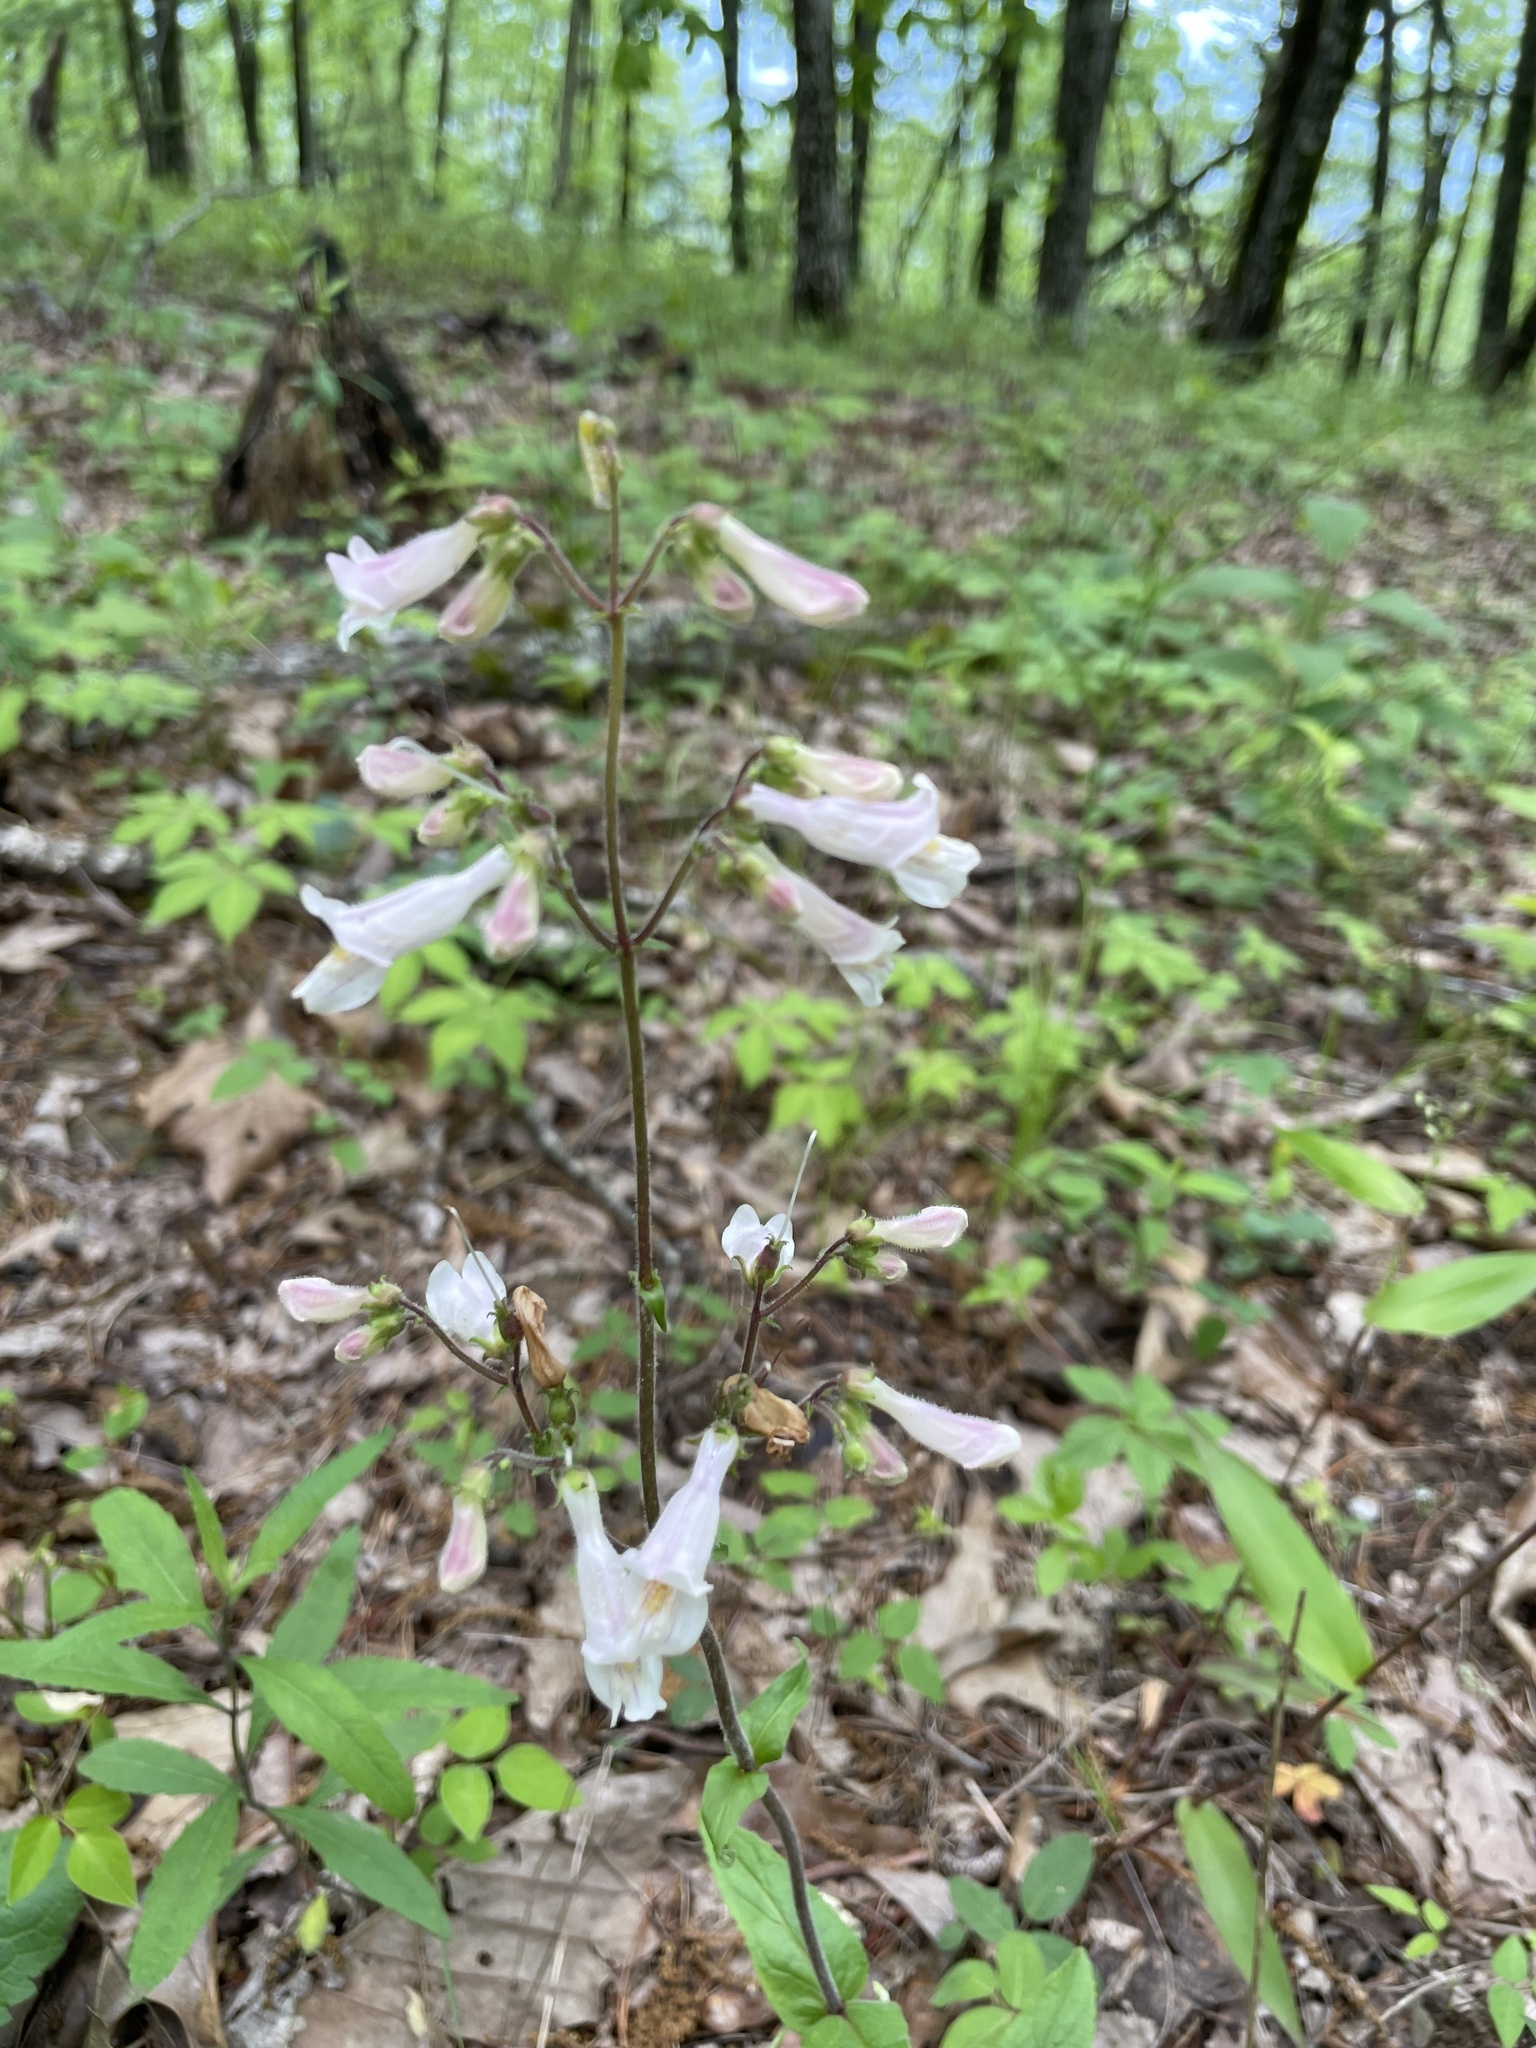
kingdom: Plantae
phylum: Tracheophyta
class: Magnoliopsida
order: Lamiales
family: Plantaginaceae
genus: Penstemon
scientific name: Penstemon pallidus
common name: Pale beardtongue
